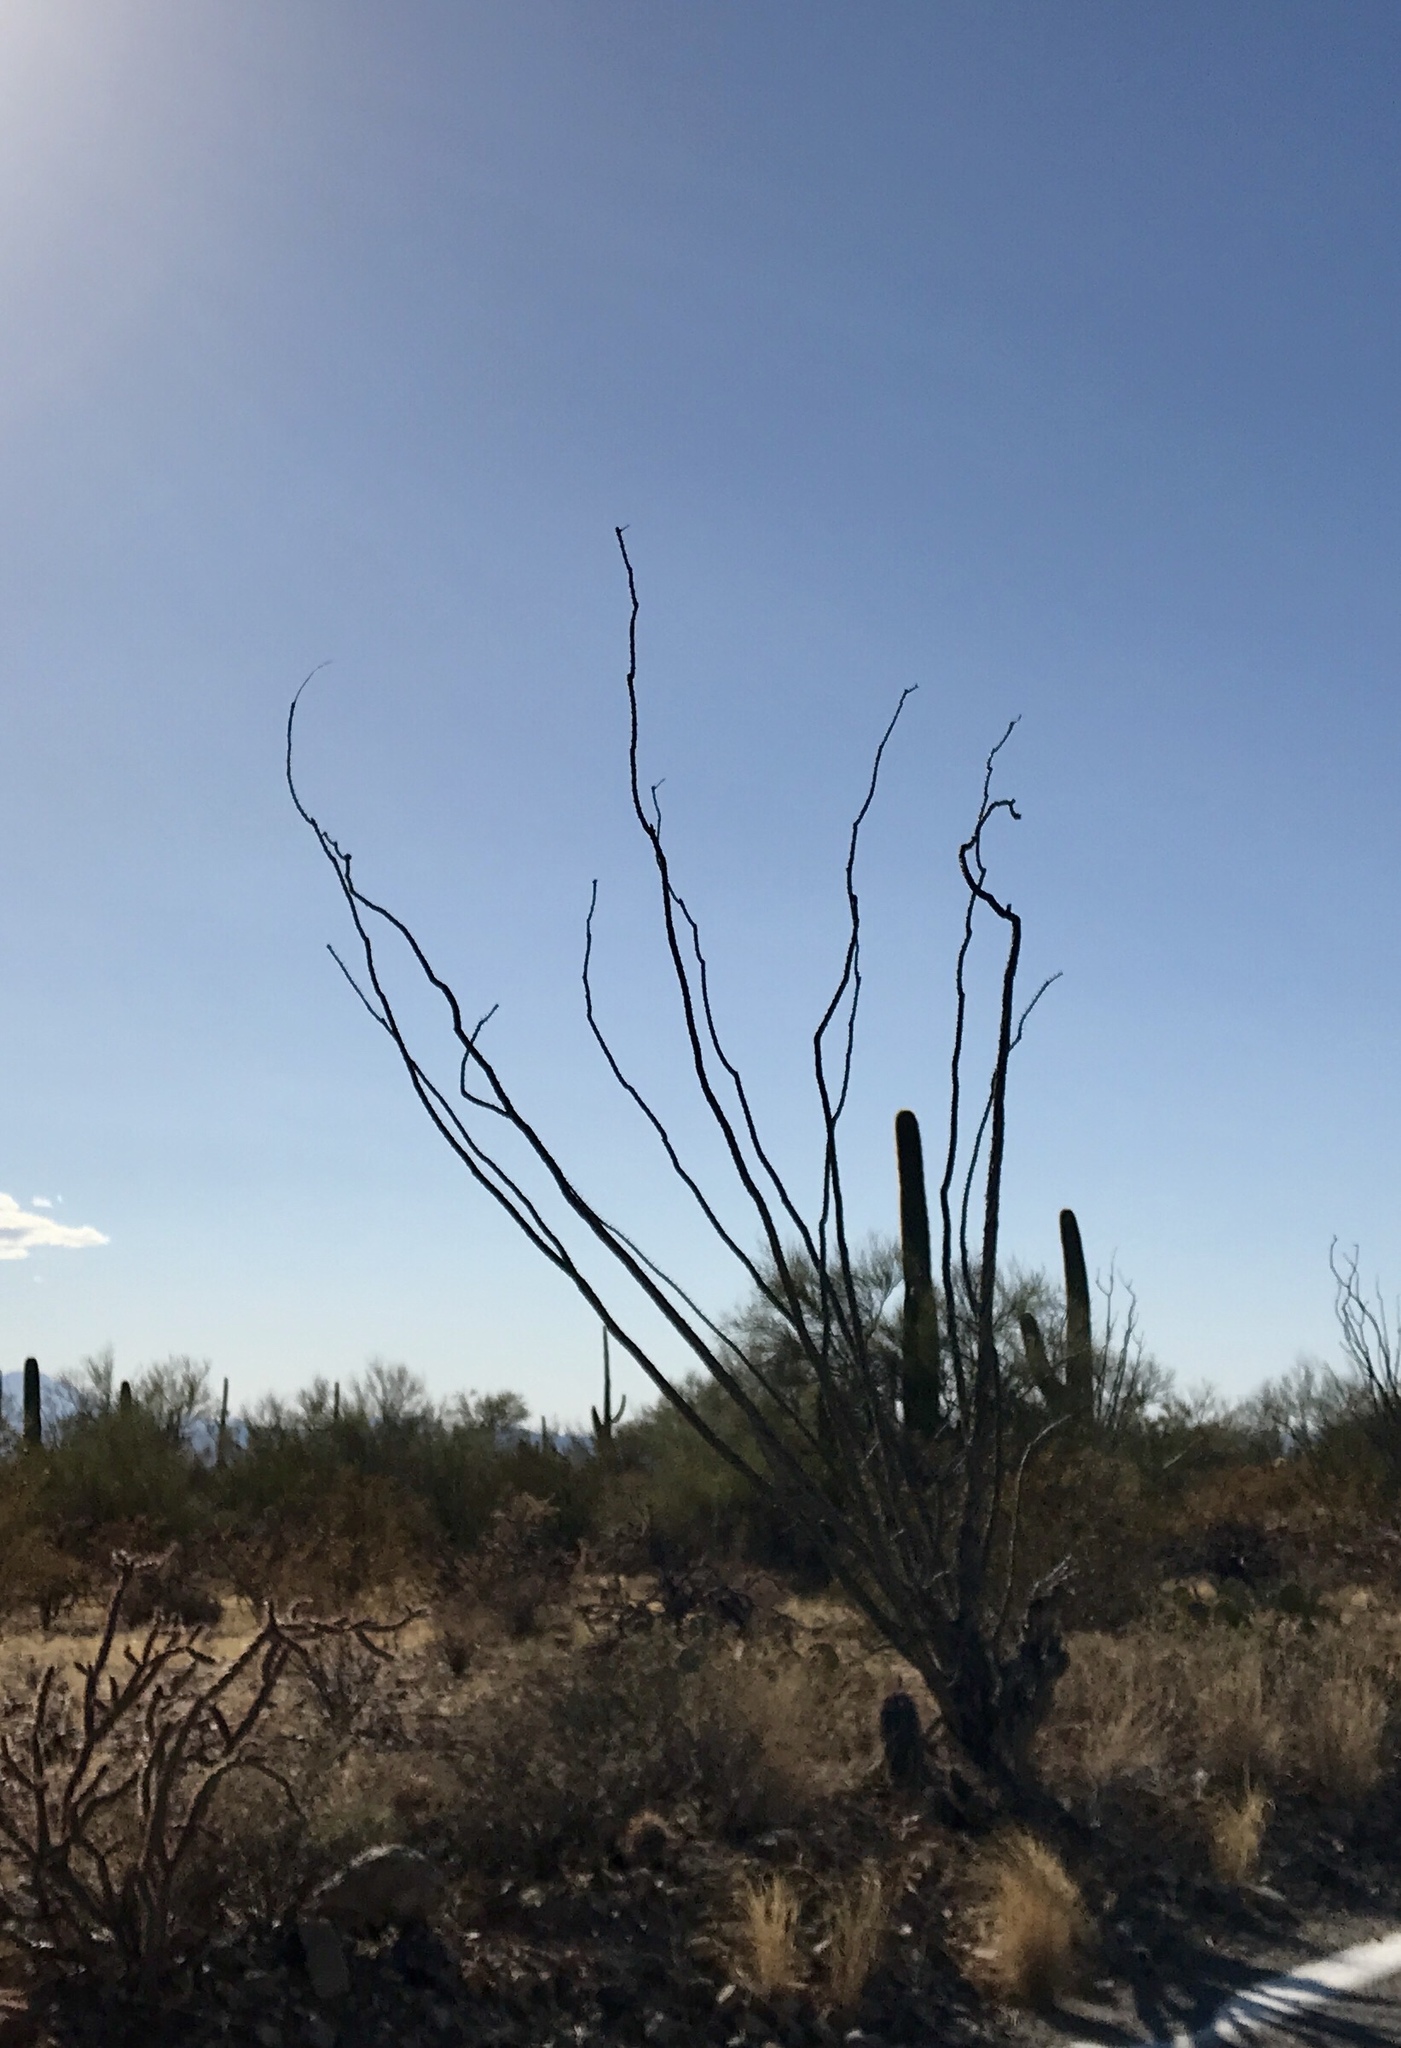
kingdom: Plantae
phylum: Tracheophyta
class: Magnoliopsida
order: Ericales
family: Fouquieriaceae
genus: Fouquieria
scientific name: Fouquieria splendens
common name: Vine-cactus
